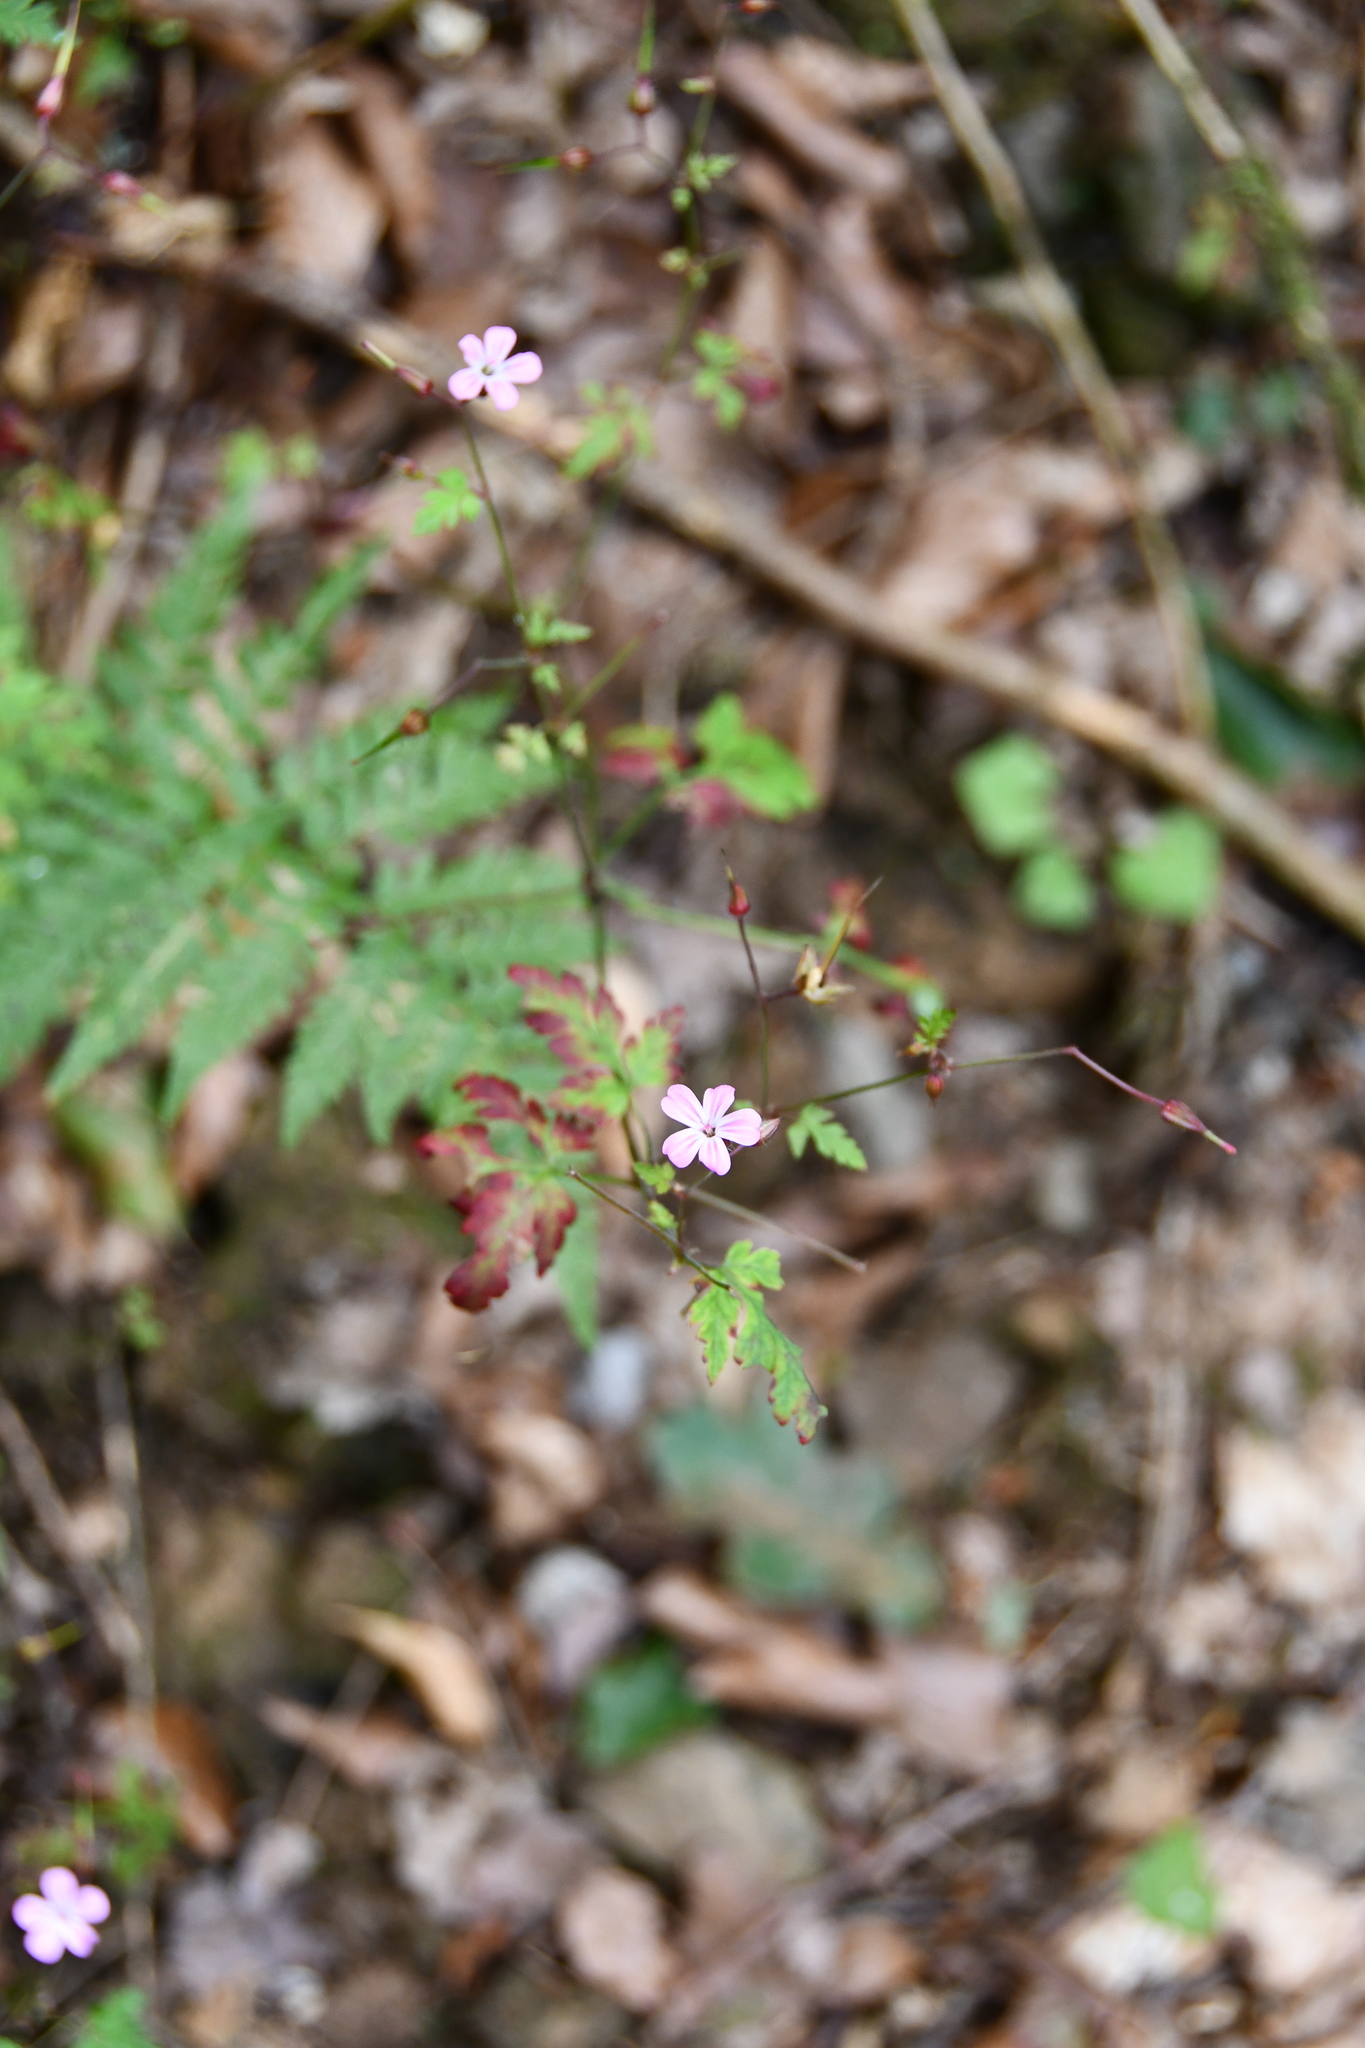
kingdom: Plantae
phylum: Tracheophyta
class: Magnoliopsida
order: Geraniales
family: Geraniaceae
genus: Geranium
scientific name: Geranium robertianum
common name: Herb-robert
